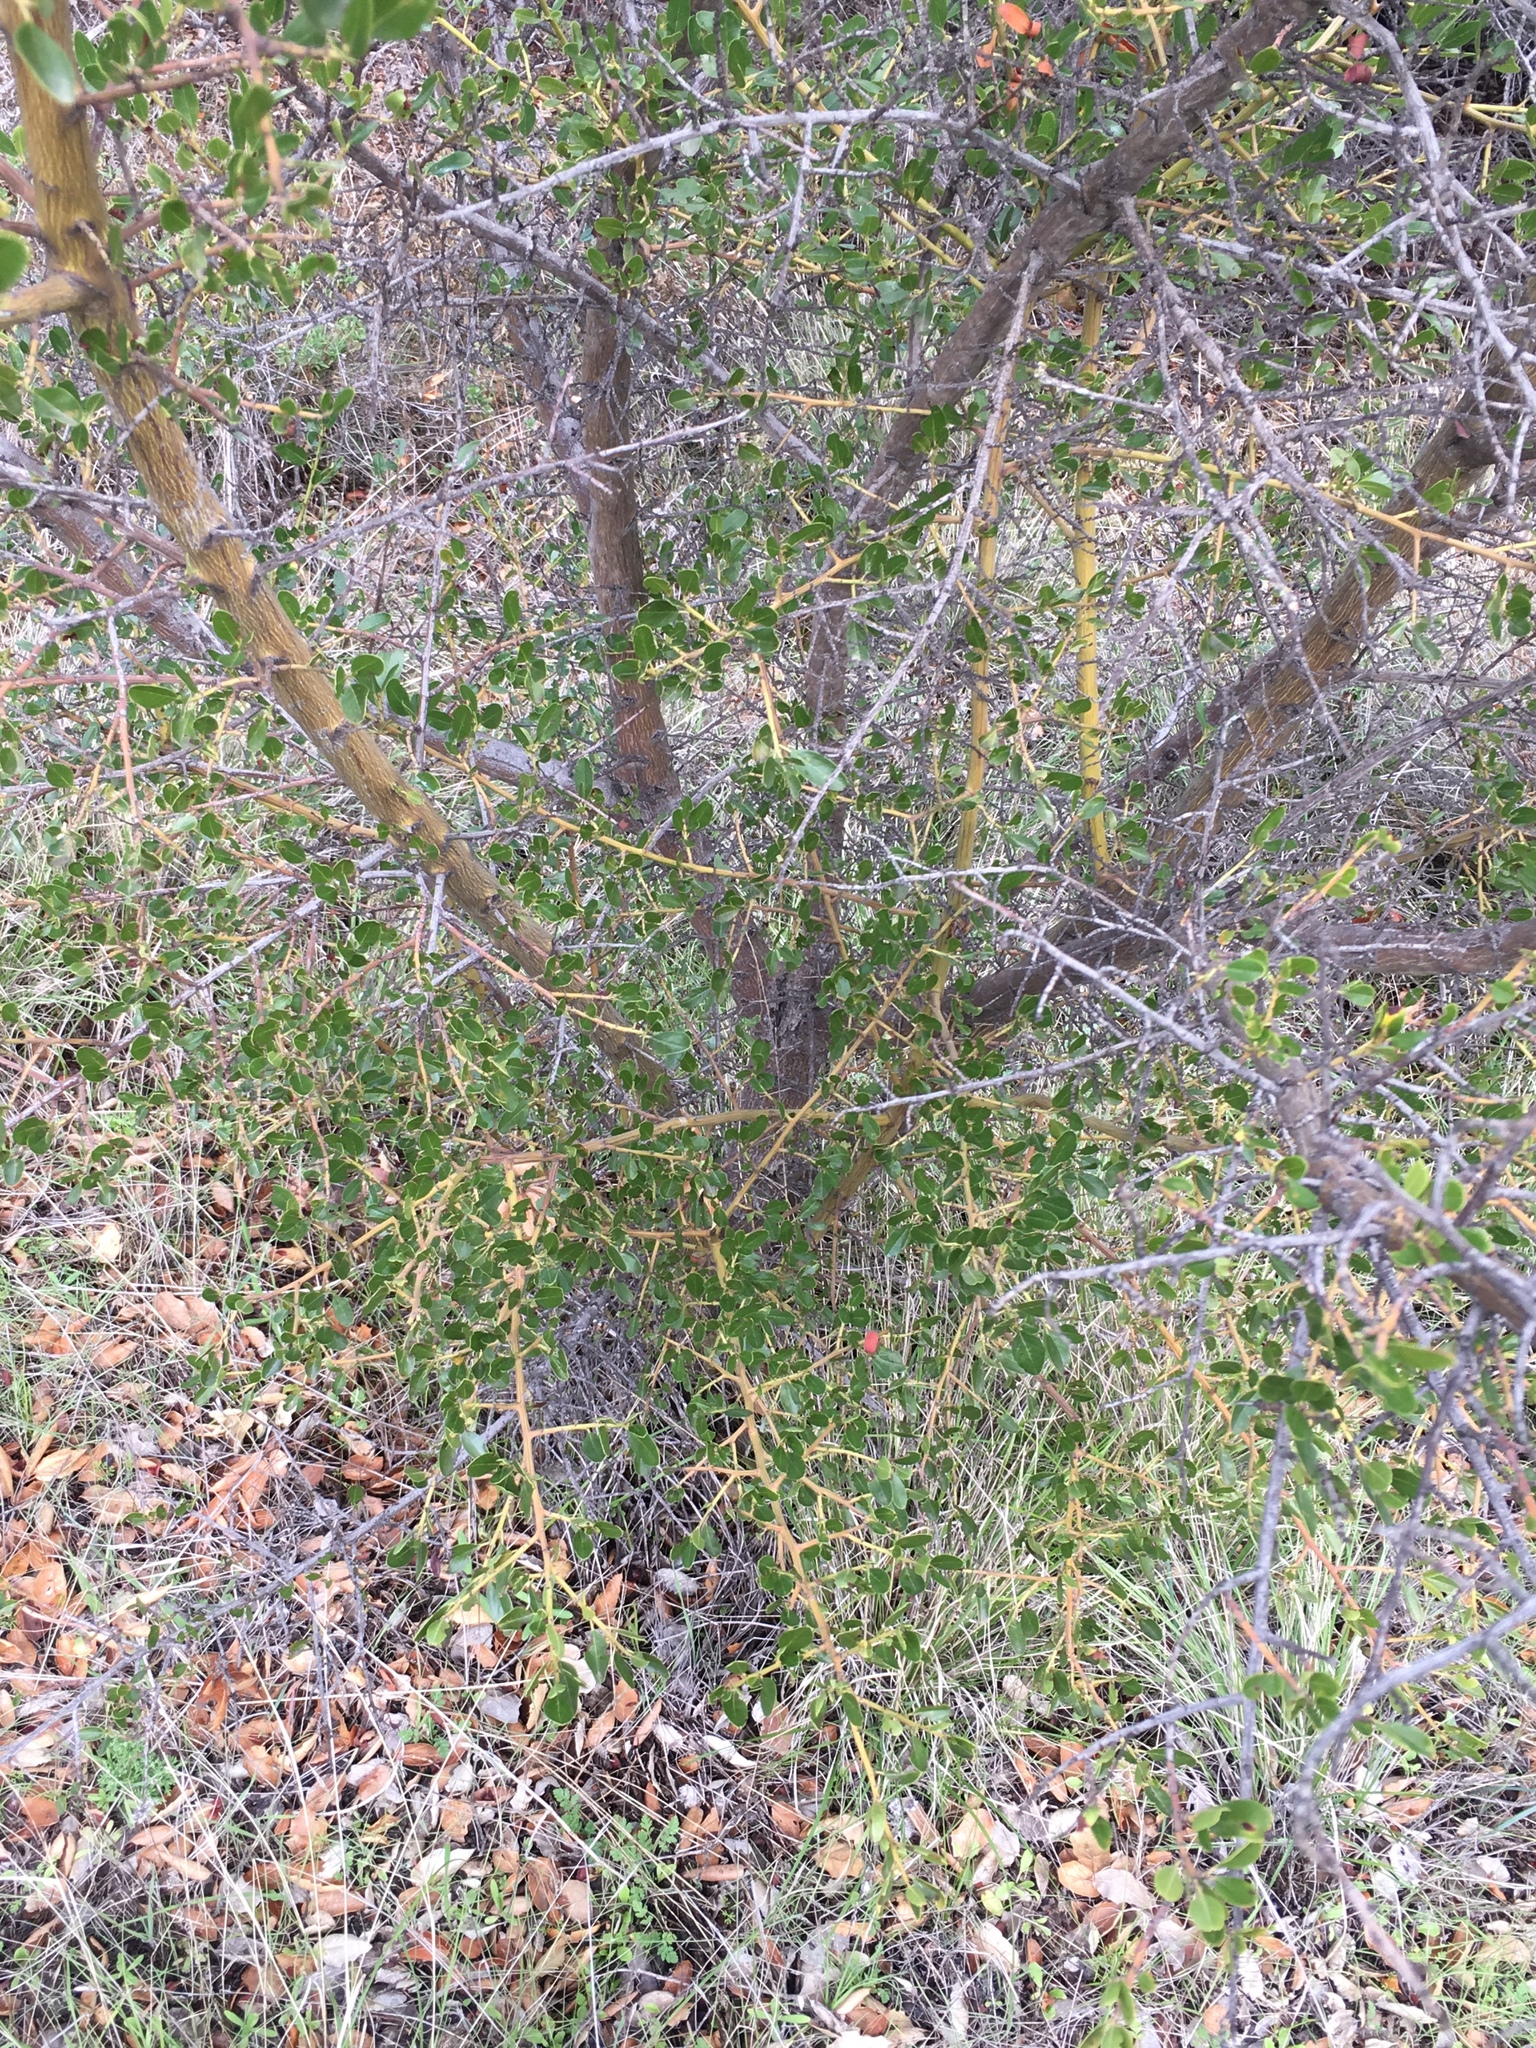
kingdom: Plantae
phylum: Tracheophyta
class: Magnoliopsida
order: Rosales
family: Rhamnaceae
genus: Ceanothus
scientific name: Ceanothus spinosus
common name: Greenbark whitethorn
